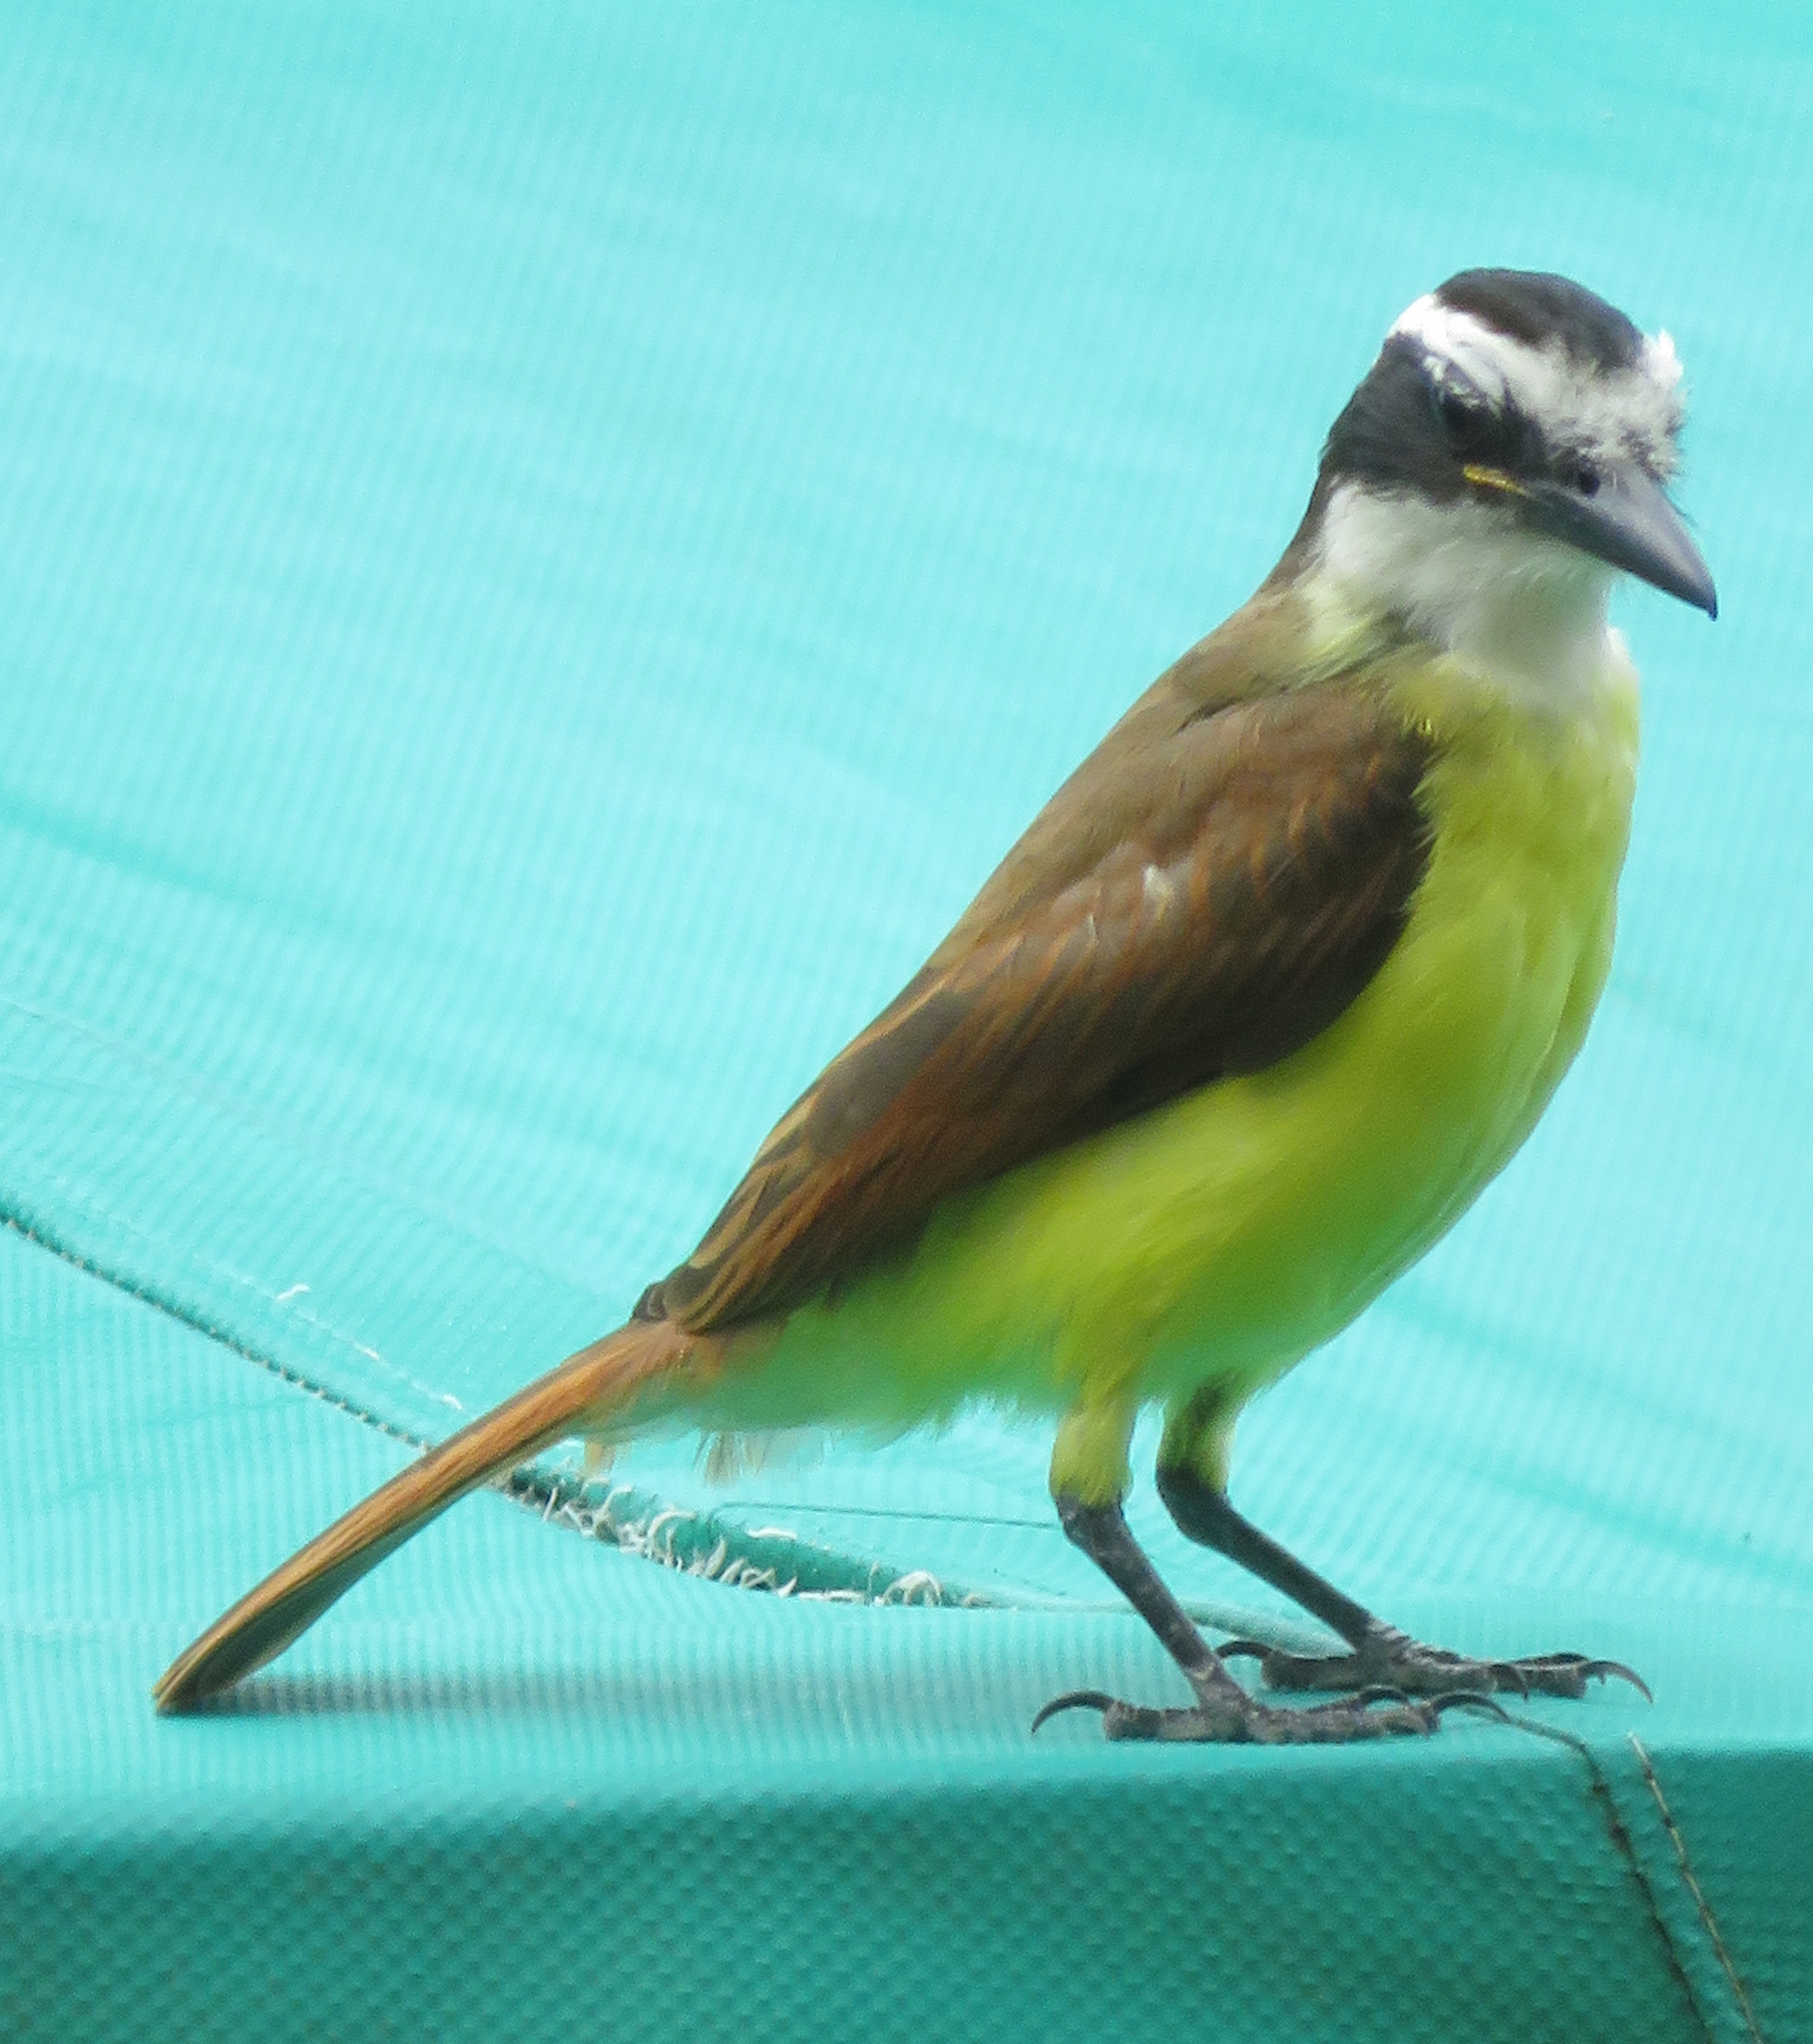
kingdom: Animalia
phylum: Chordata
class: Aves
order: Passeriformes
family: Tyrannidae
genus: Pitangus
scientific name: Pitangus sulphuratus
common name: Great kiskadee
